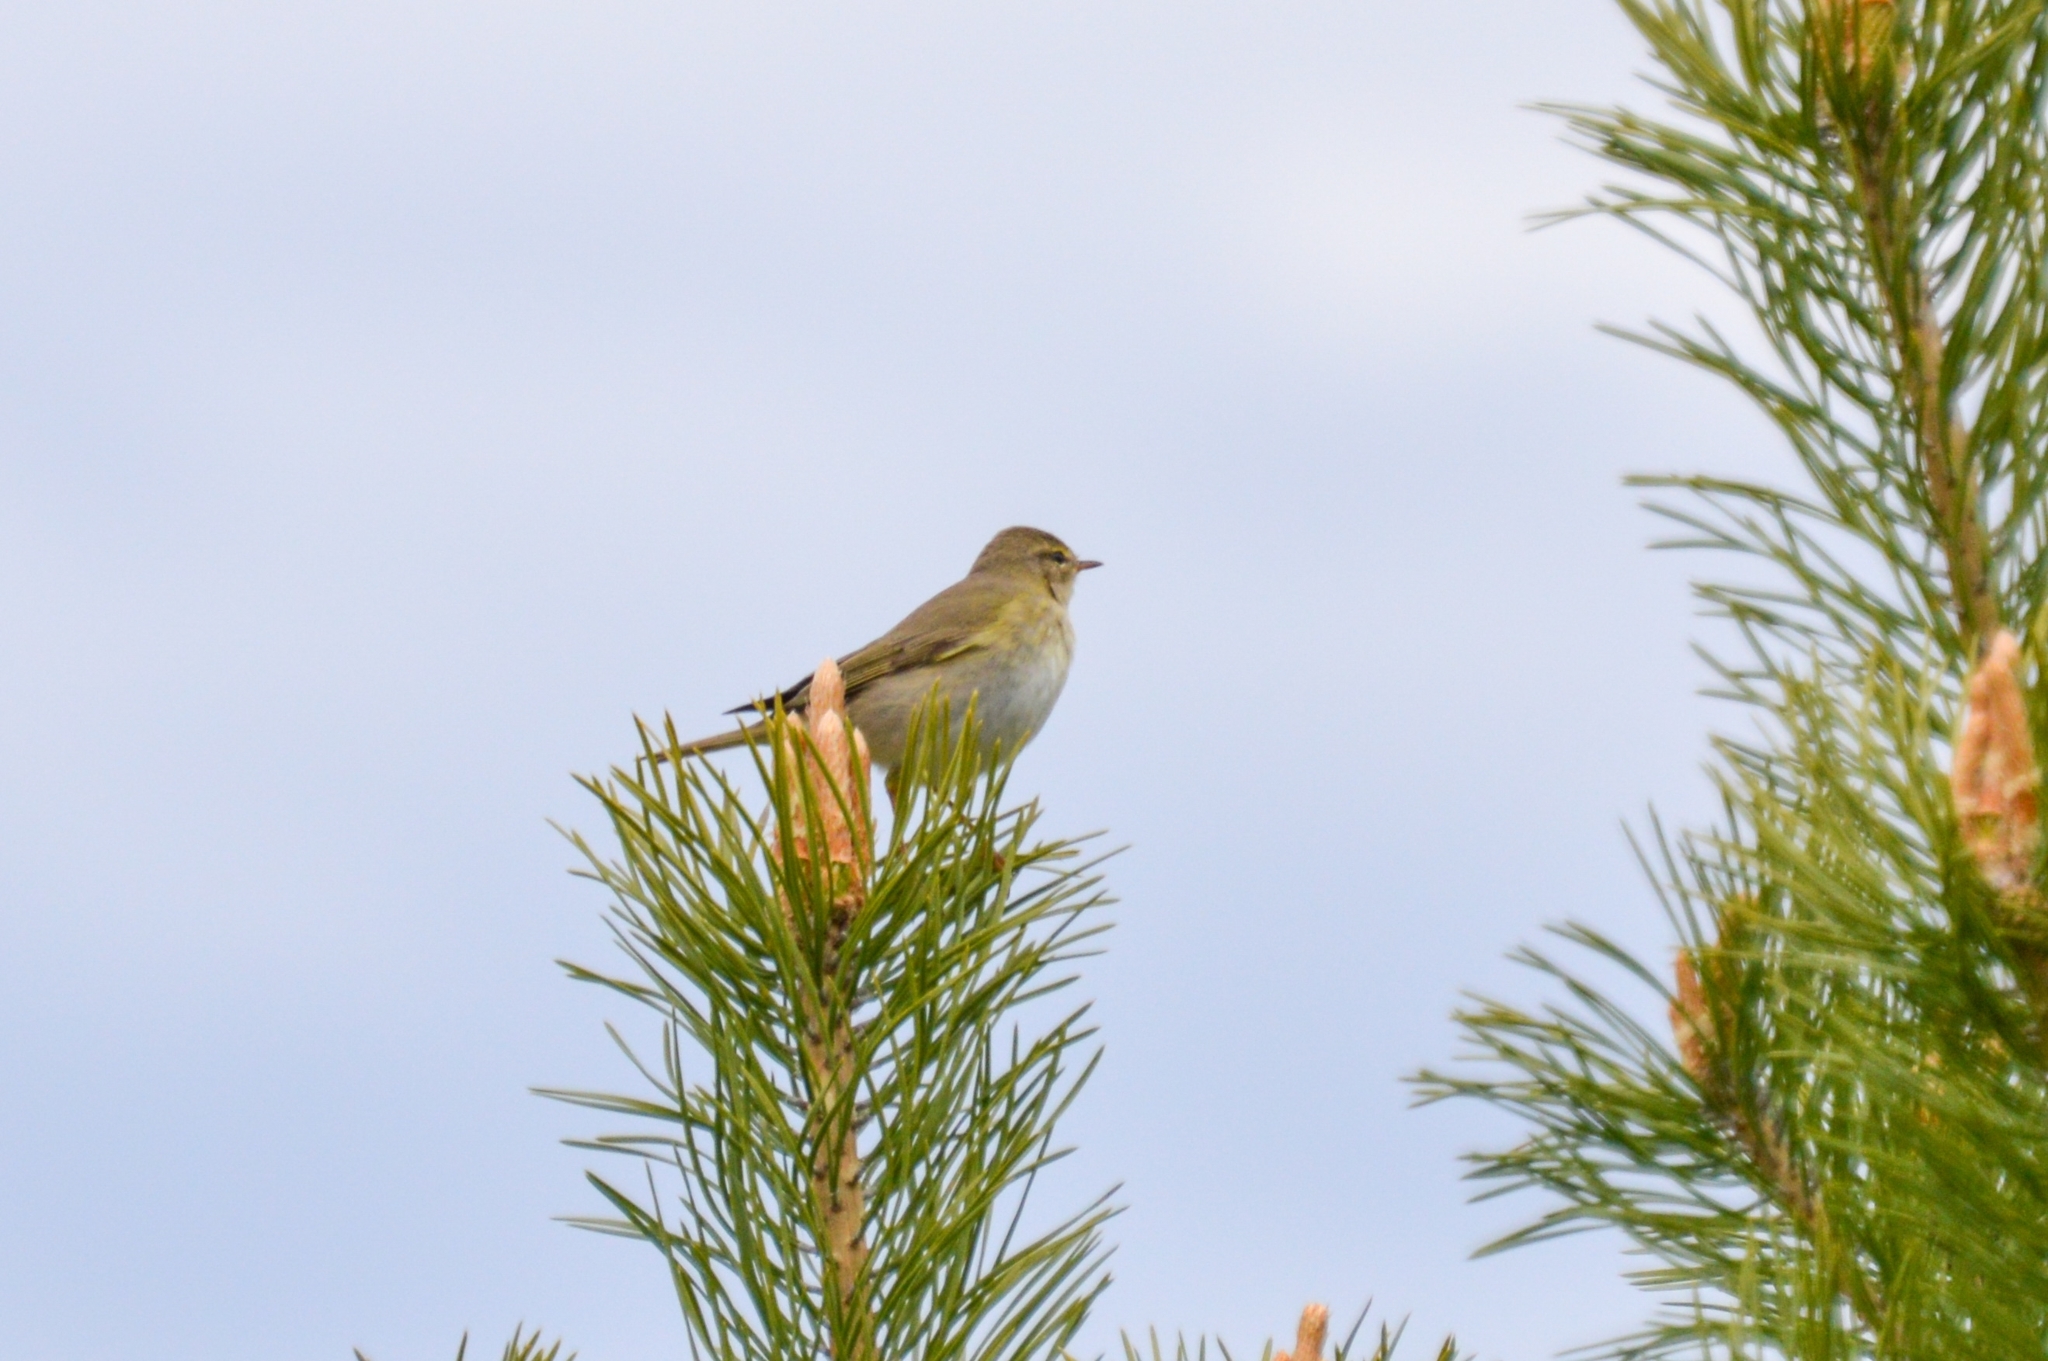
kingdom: Animalia
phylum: Chordata
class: Aves
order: Passeriformes
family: Phylloscopidae
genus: Phylloscopus
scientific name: Phylloscopus trochilus
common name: Willow warbler
